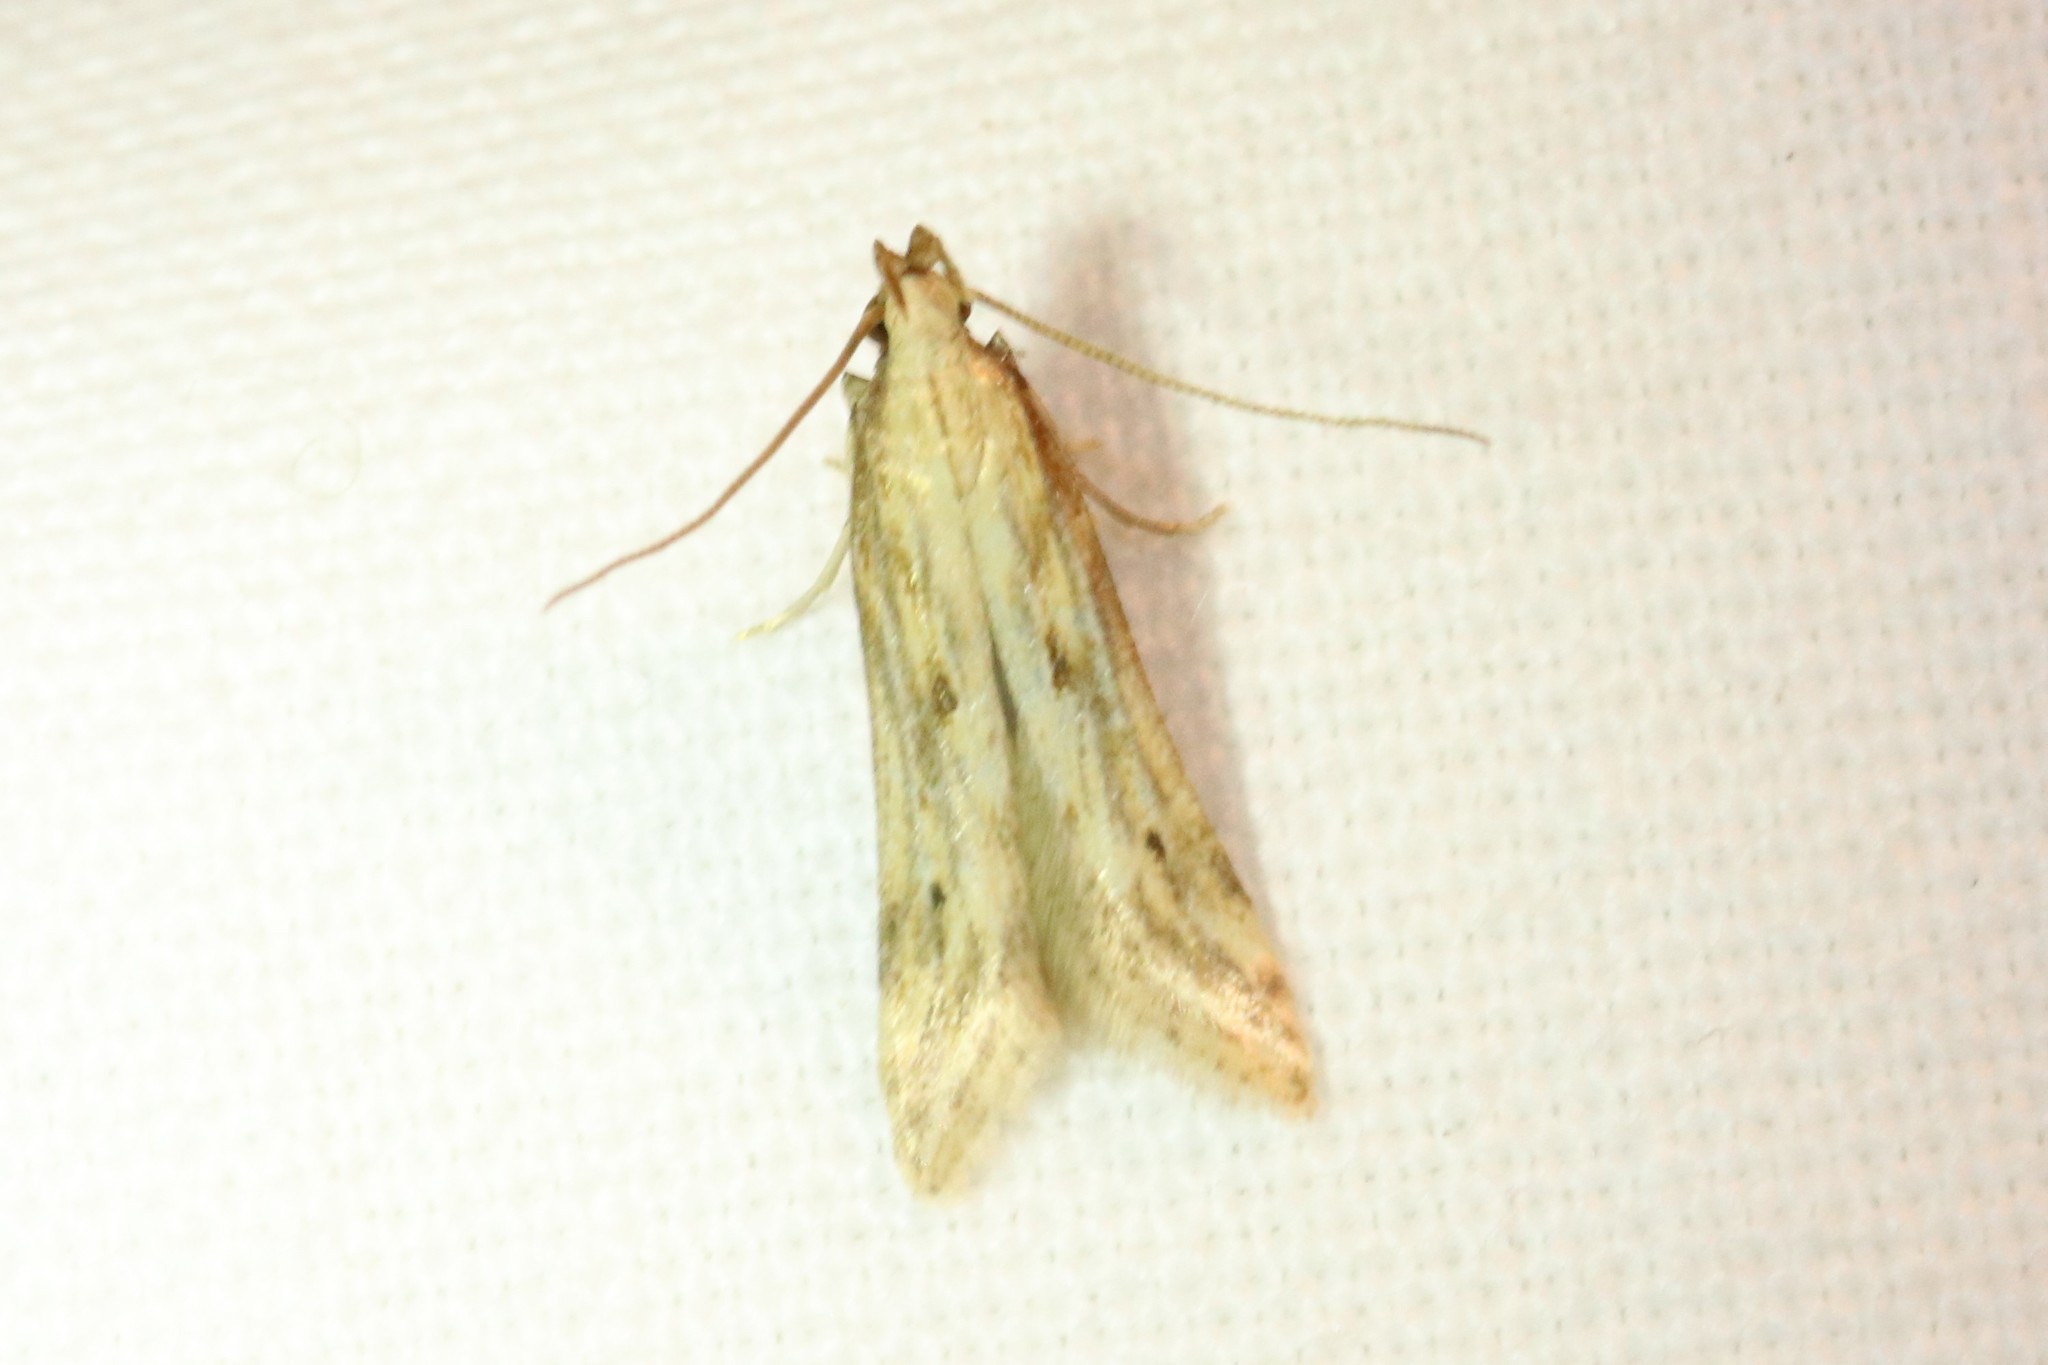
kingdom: Animalia
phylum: Arthropoda
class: Insecta
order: Lepidoptera
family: Gelechiidae
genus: Metzneria
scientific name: Metzneria lappella
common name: Burdock neb
